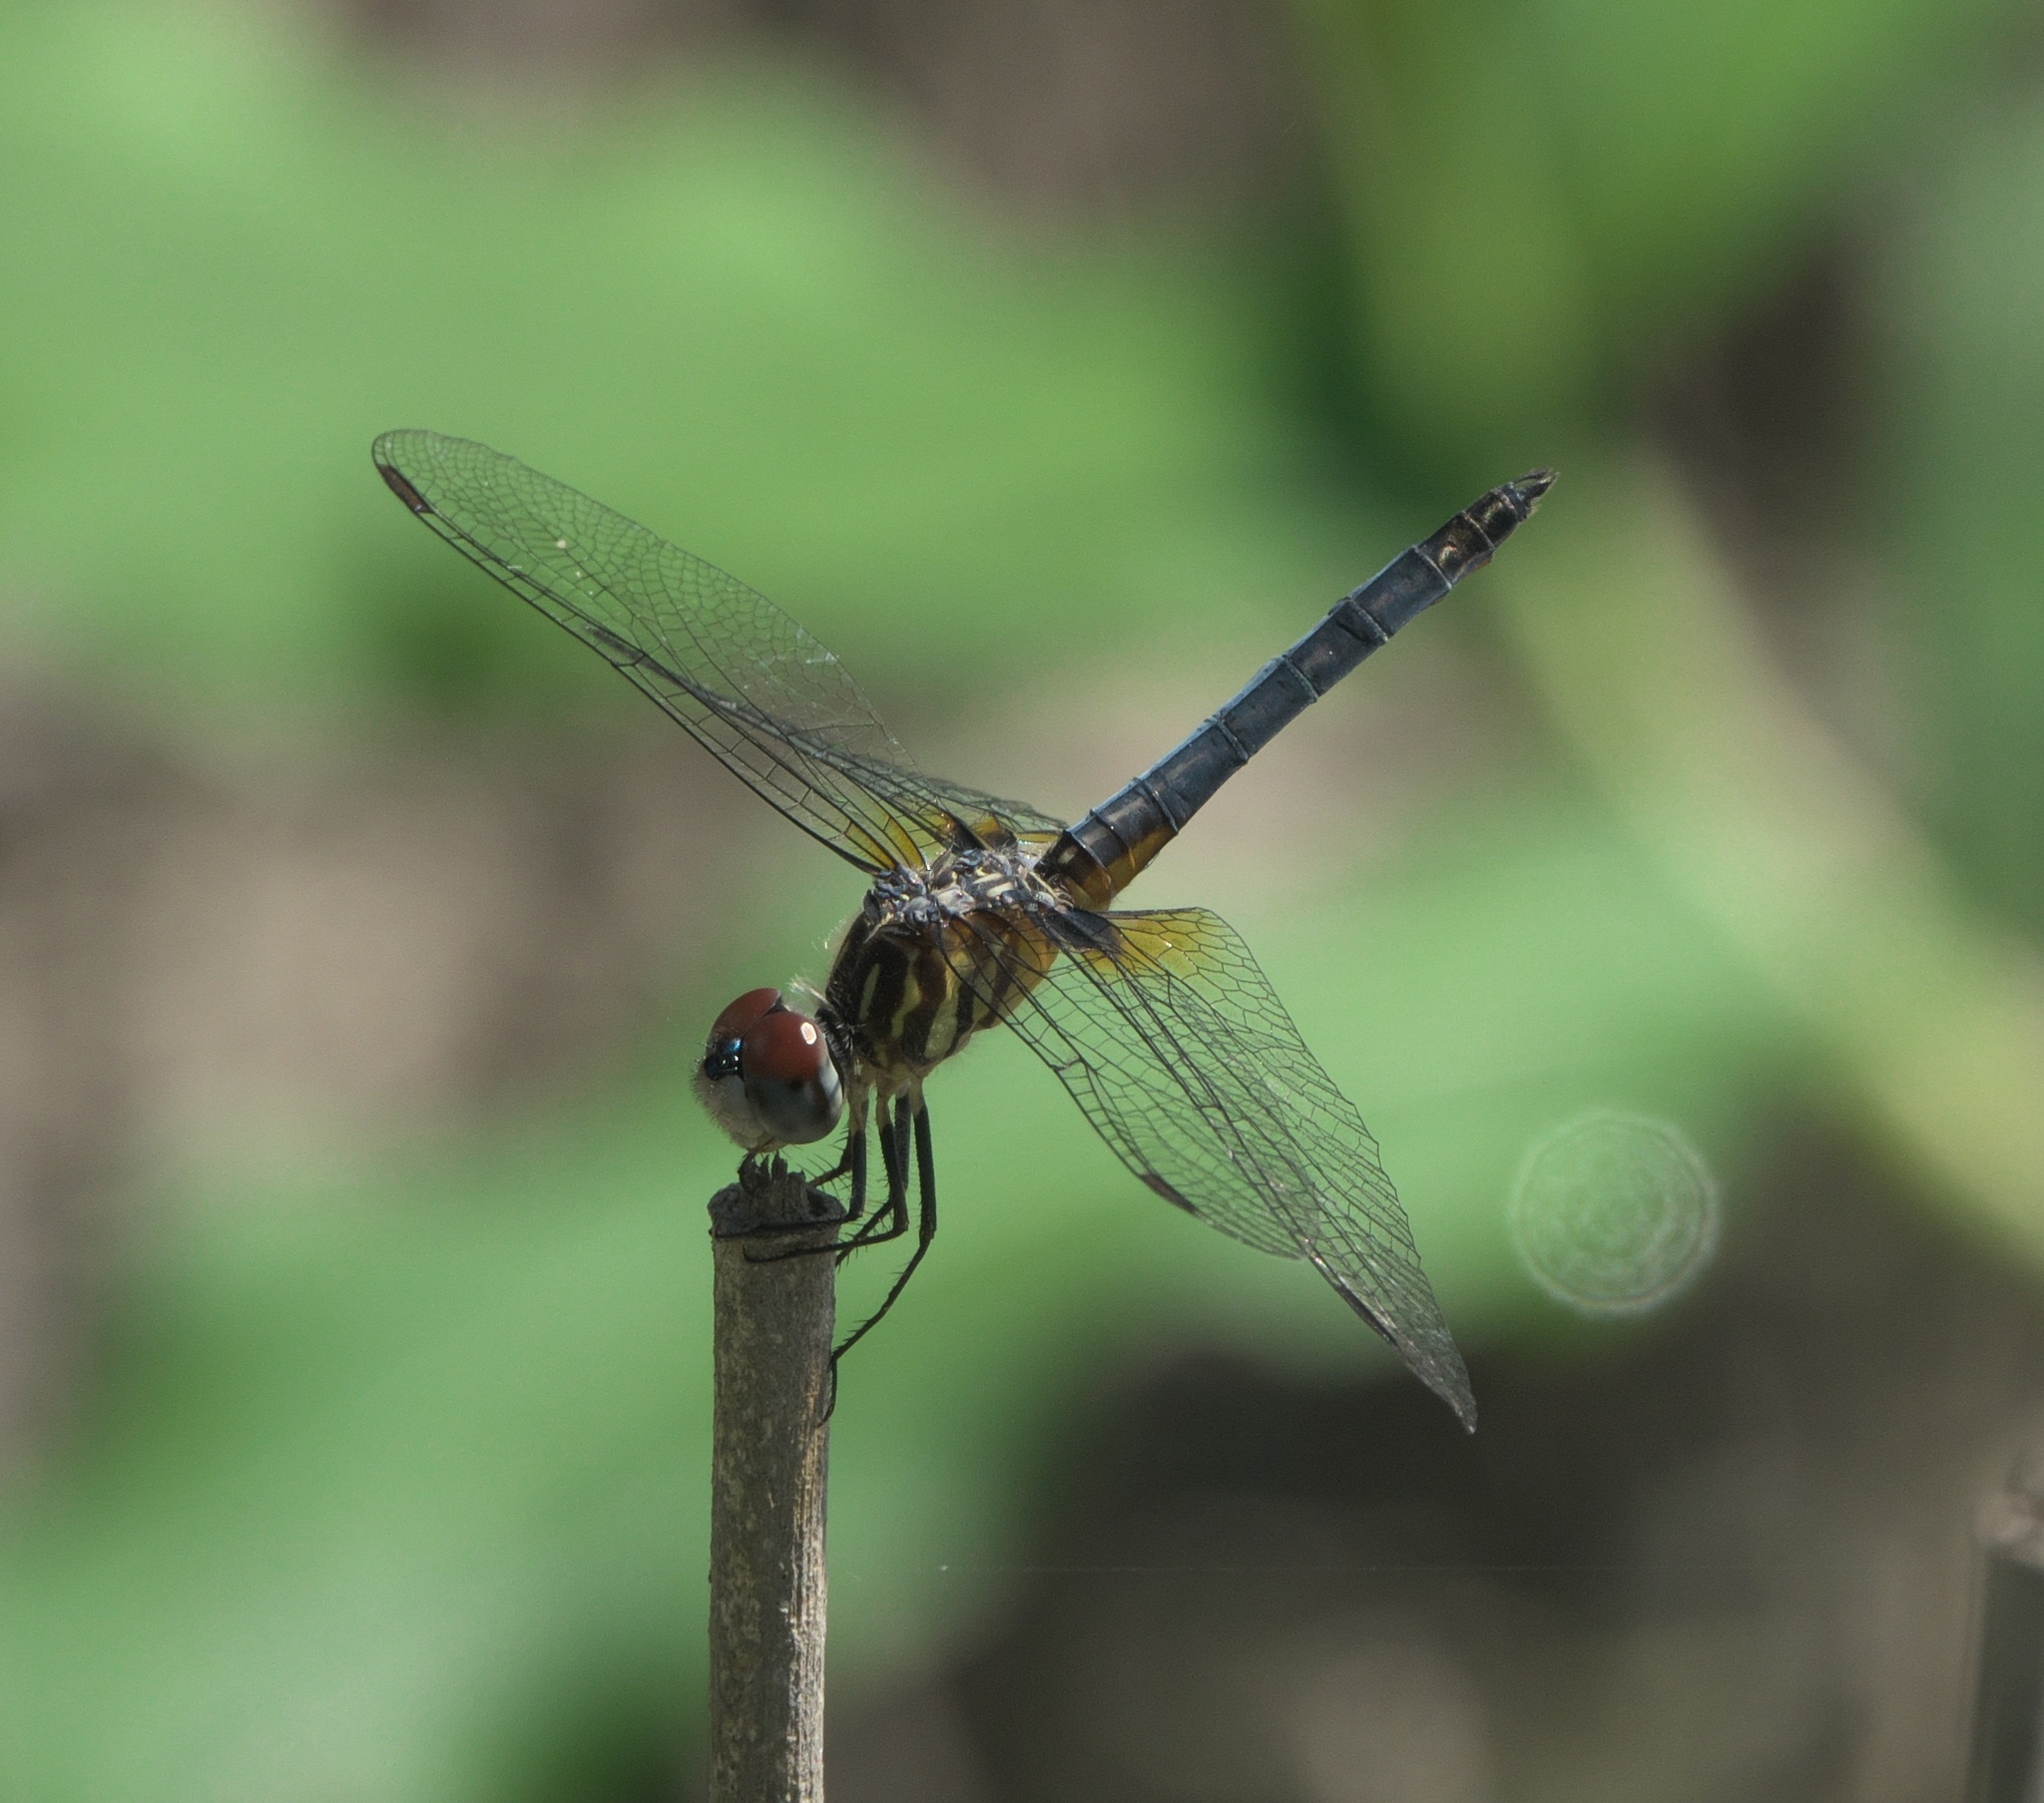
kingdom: Animalia
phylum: Arthropoda
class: Insecta
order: Odonata
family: Libellulidae
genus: Pachydiplax
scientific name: Pachydiplax longipennis
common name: Blue dasher
